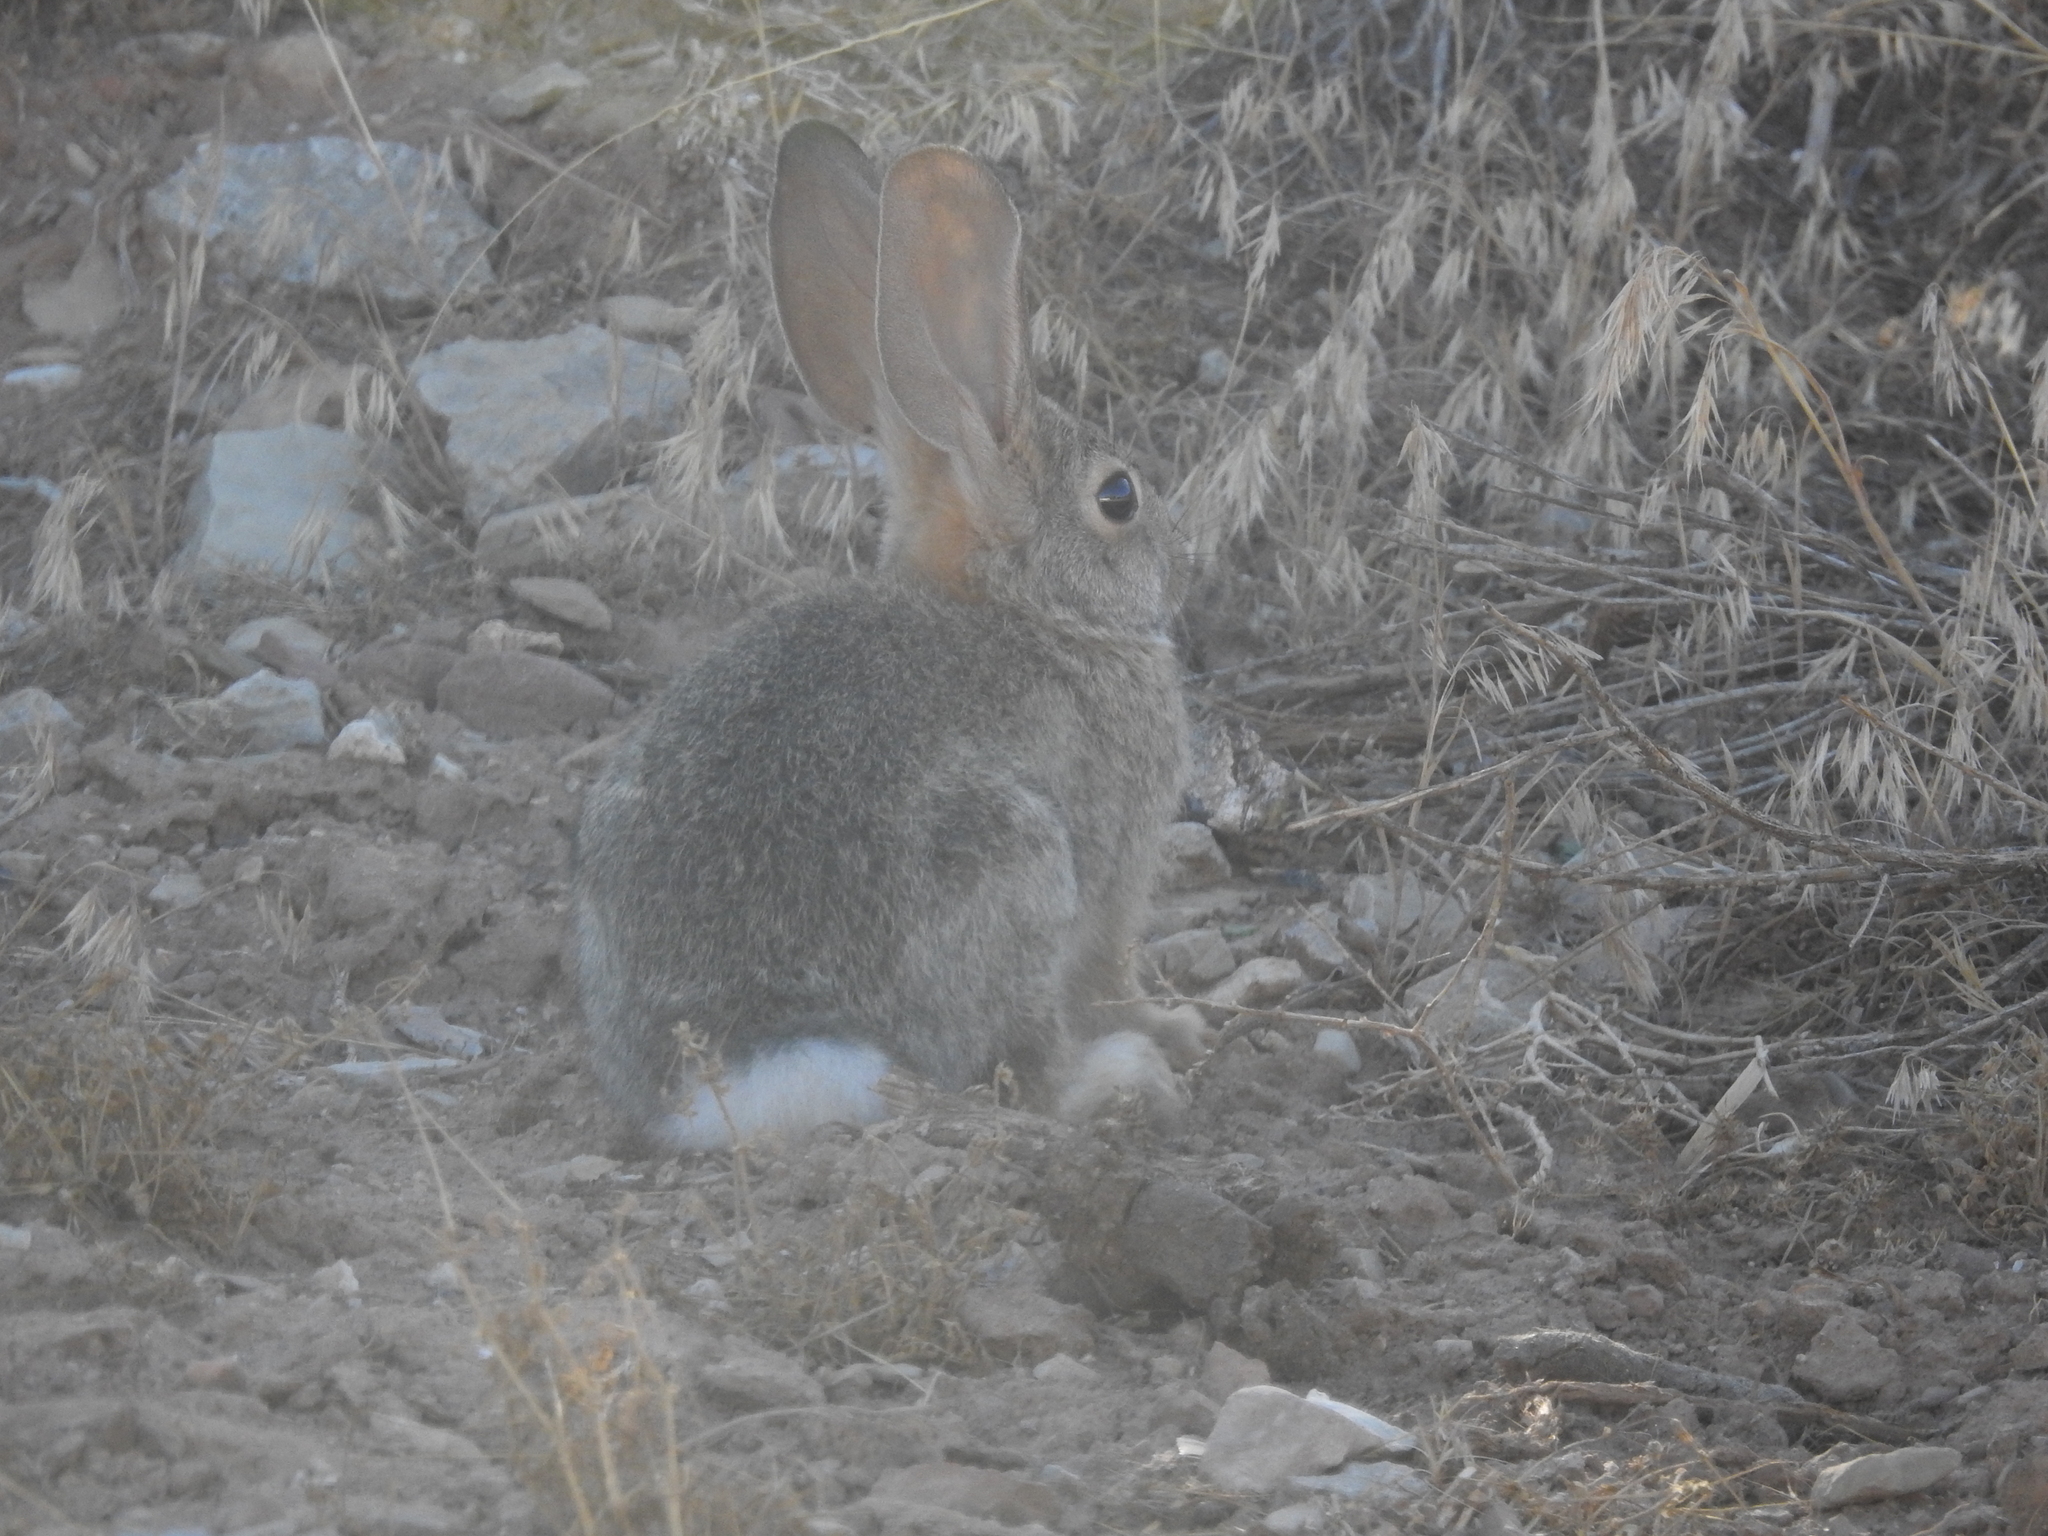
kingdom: Animalia
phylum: Chordata
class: Mammalia
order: Lagomorpha
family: Leporidae
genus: Sylvilagus
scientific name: Sylvilagus audubonii
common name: Desert cottontail
